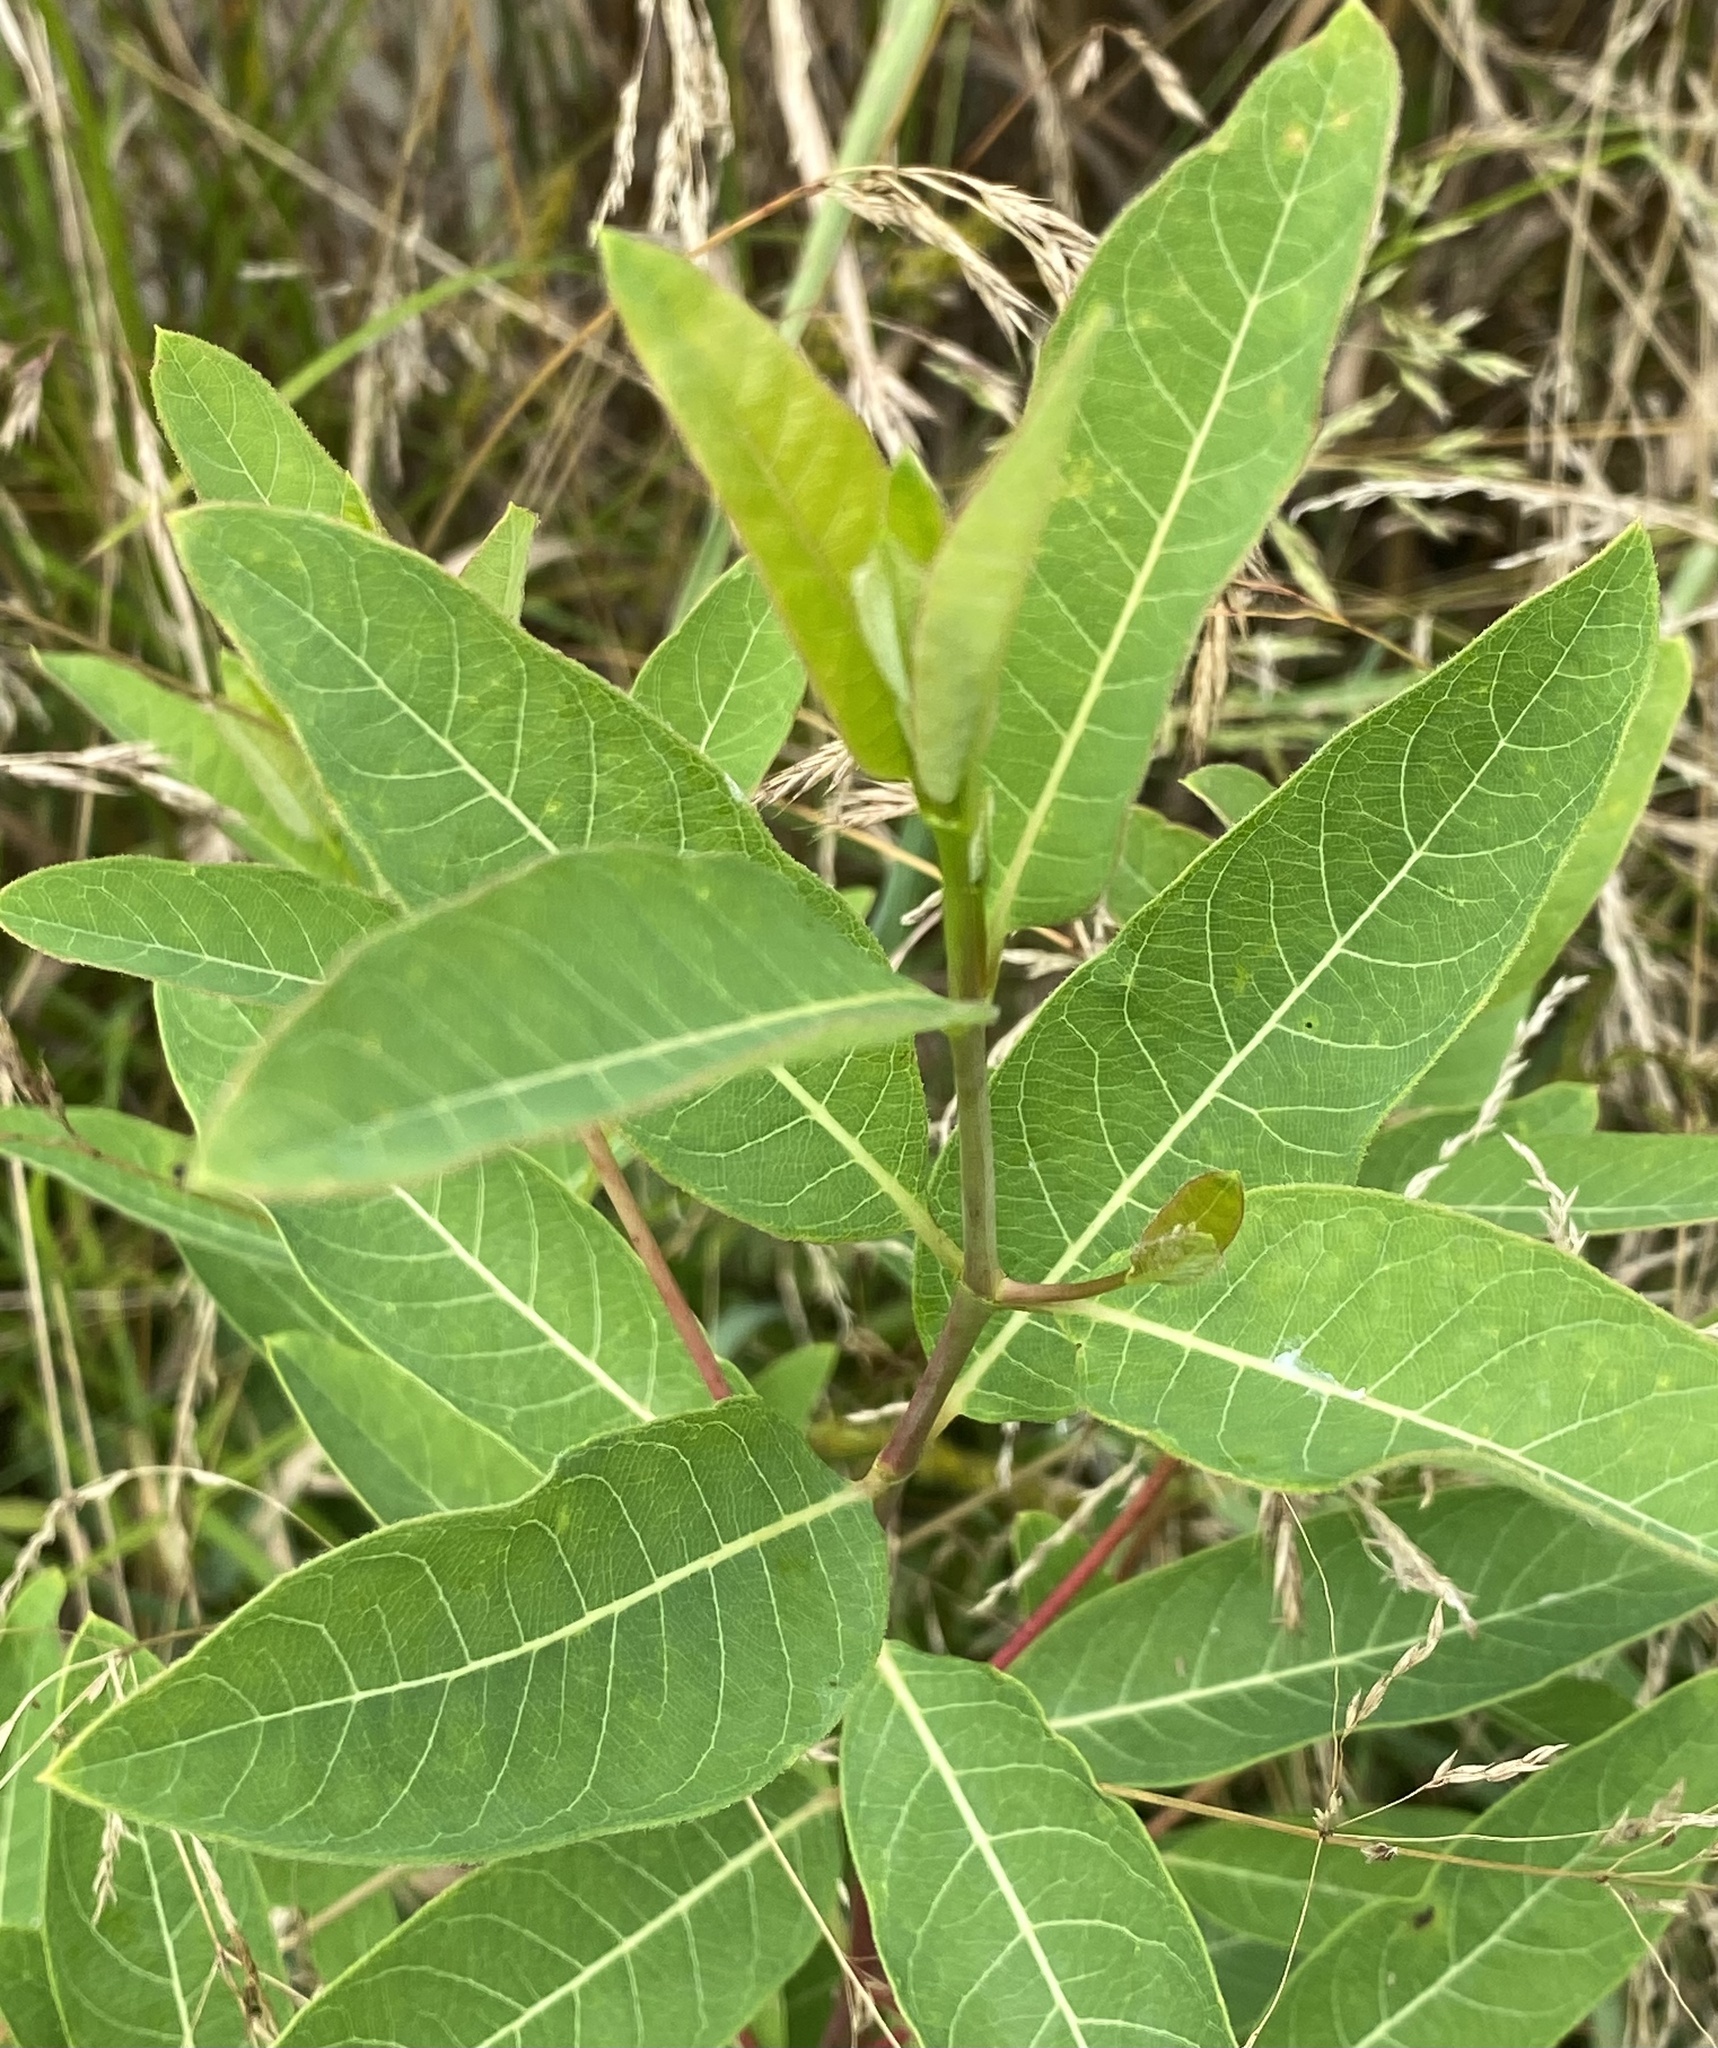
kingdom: Plantae
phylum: Tracheophyta
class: Magnoliopsida
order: Gentianales
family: Apocynaceae
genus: Apocynum
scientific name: Apocynum cannabinum
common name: Hemp dogbane
